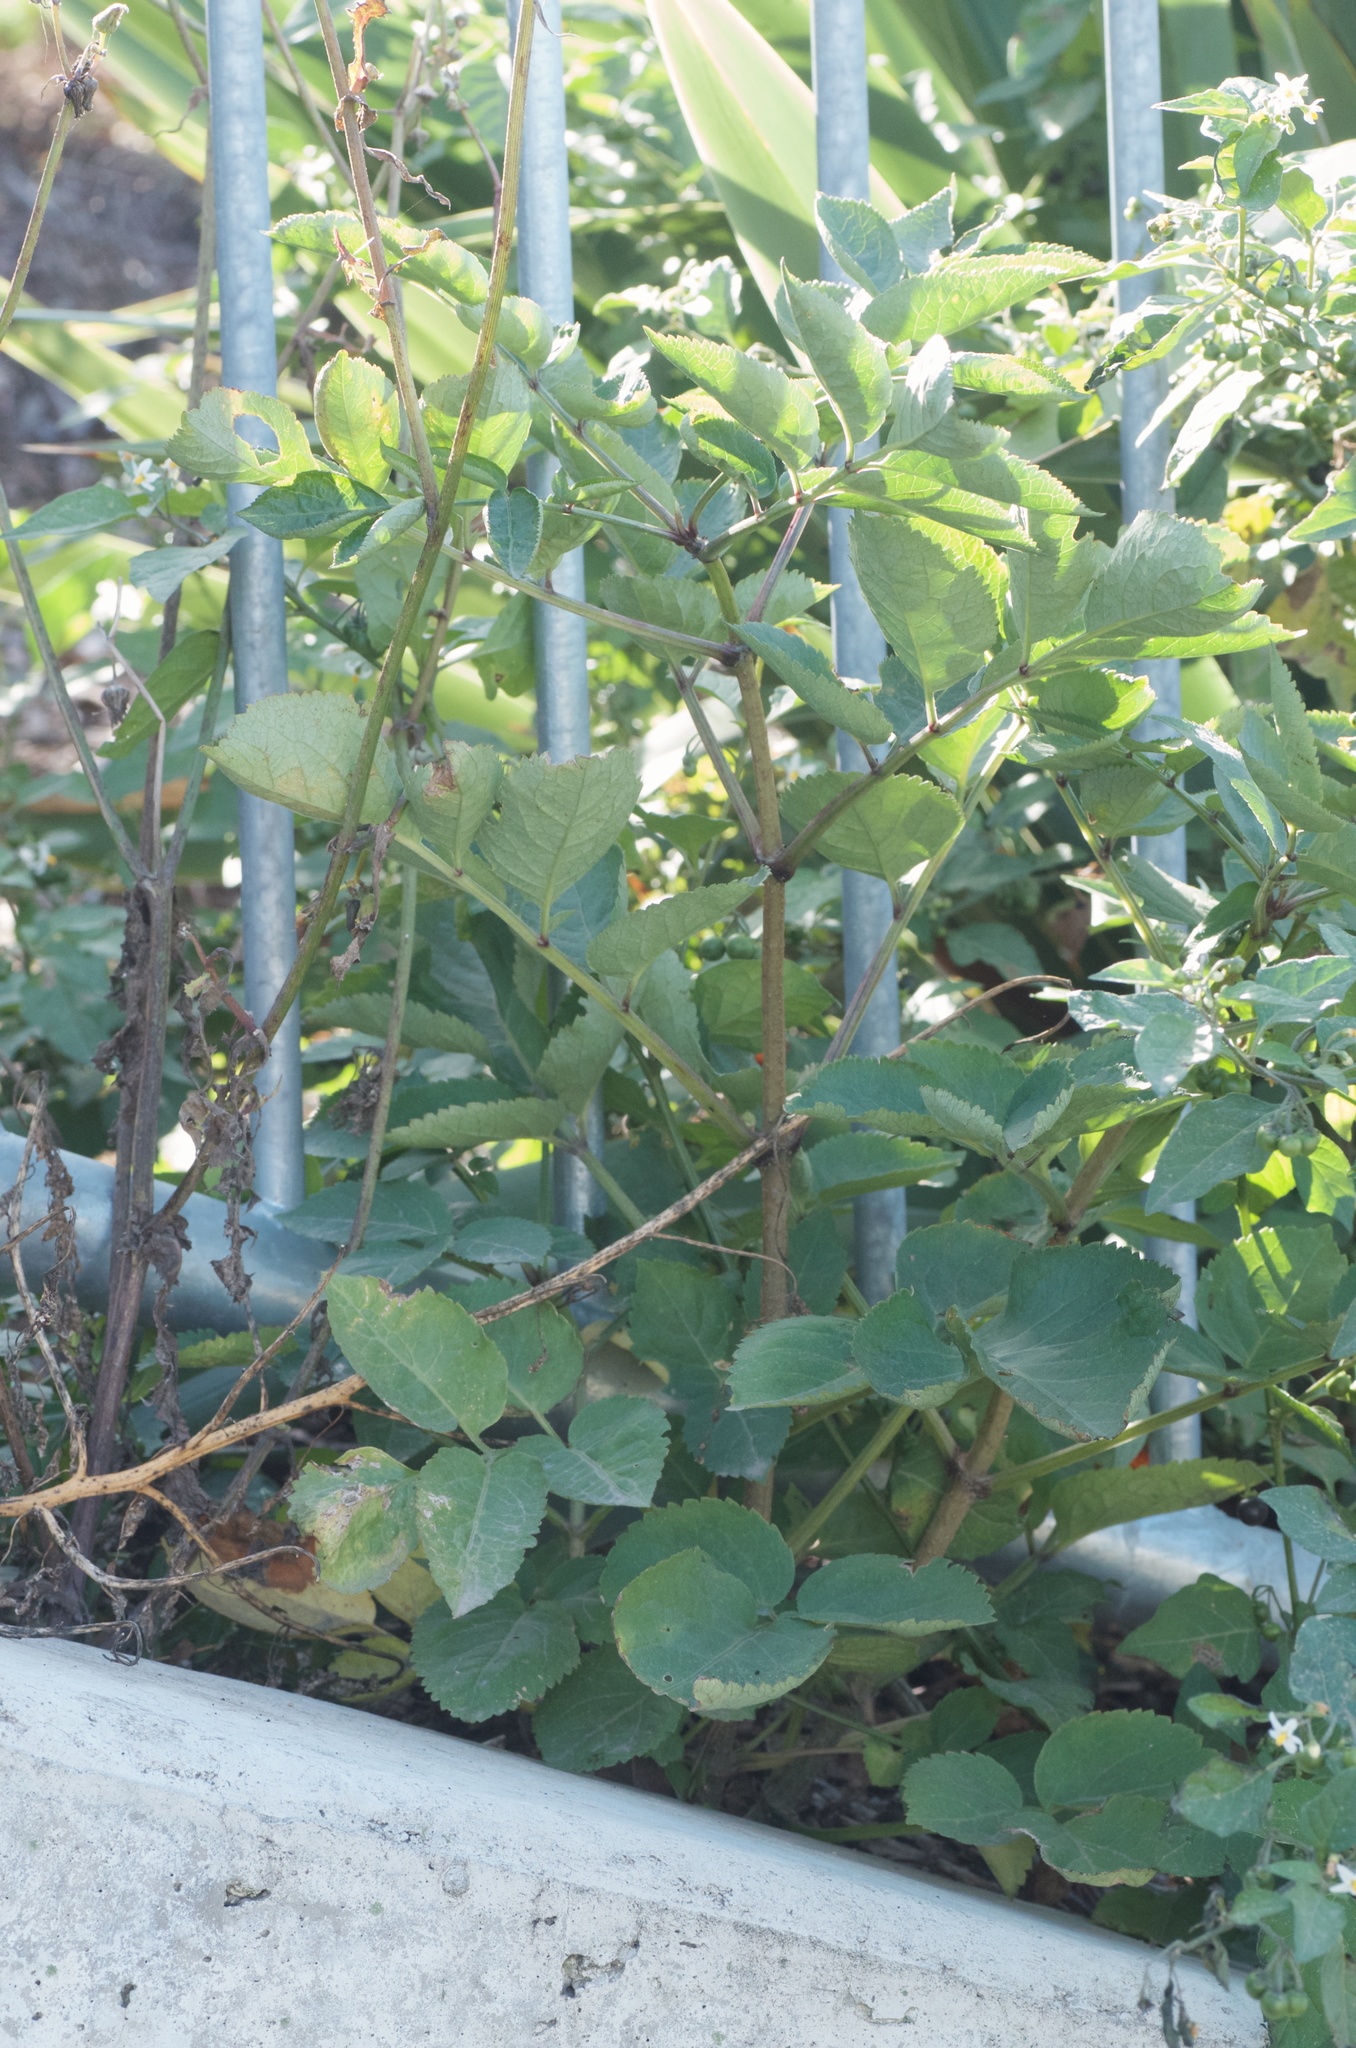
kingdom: Plantae
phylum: Tracheophyta
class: Magnoliopsida
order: Dipsacales
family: Viburnaceae
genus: Sambucus
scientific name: Sambucus nigra
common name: Elder
